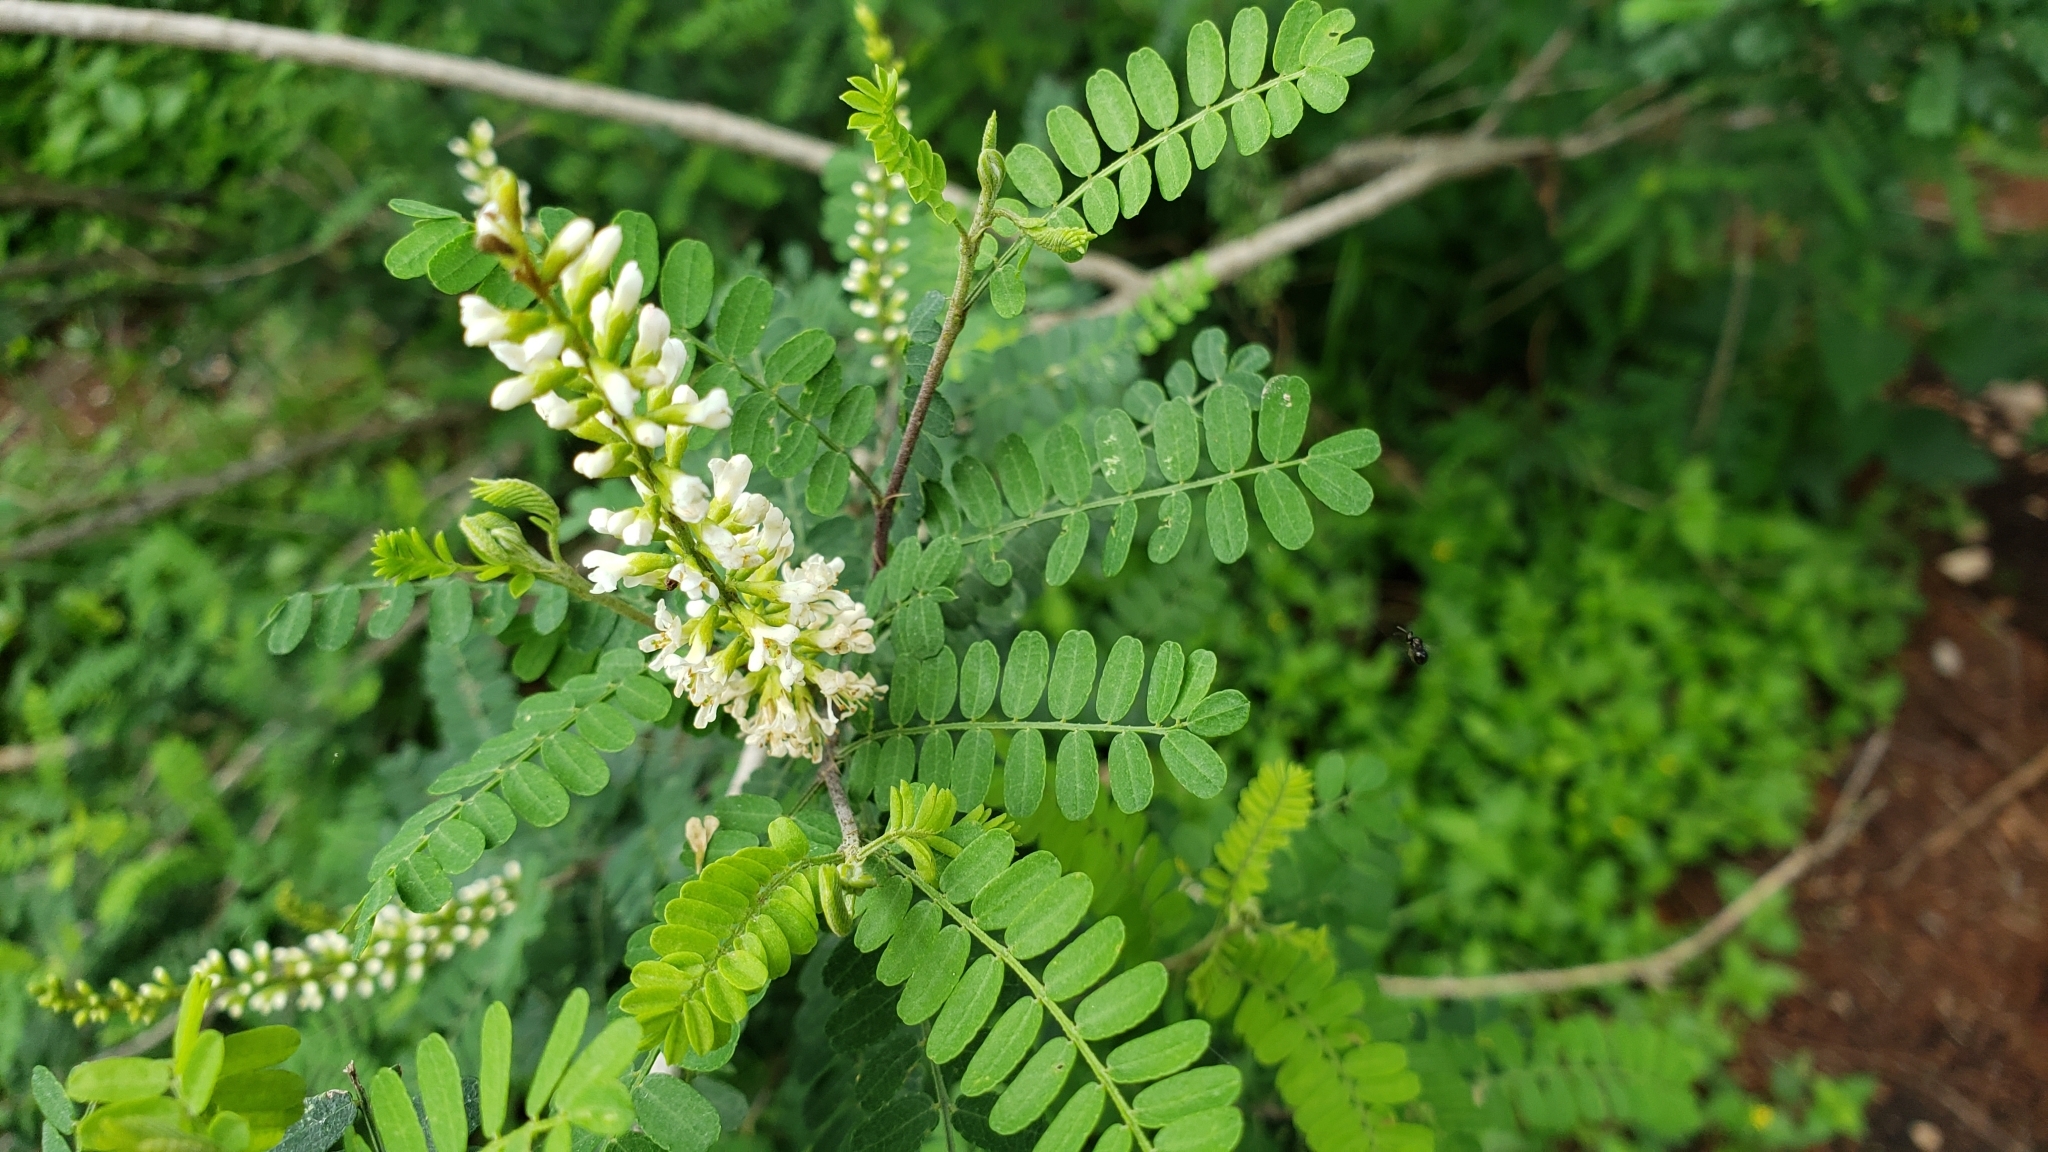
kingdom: Plantae
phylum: Tracheophyta
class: Magnoliopsida
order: Fabales
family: Fabaceae
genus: Eysenhardtia
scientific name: Eysenhardtia texana
